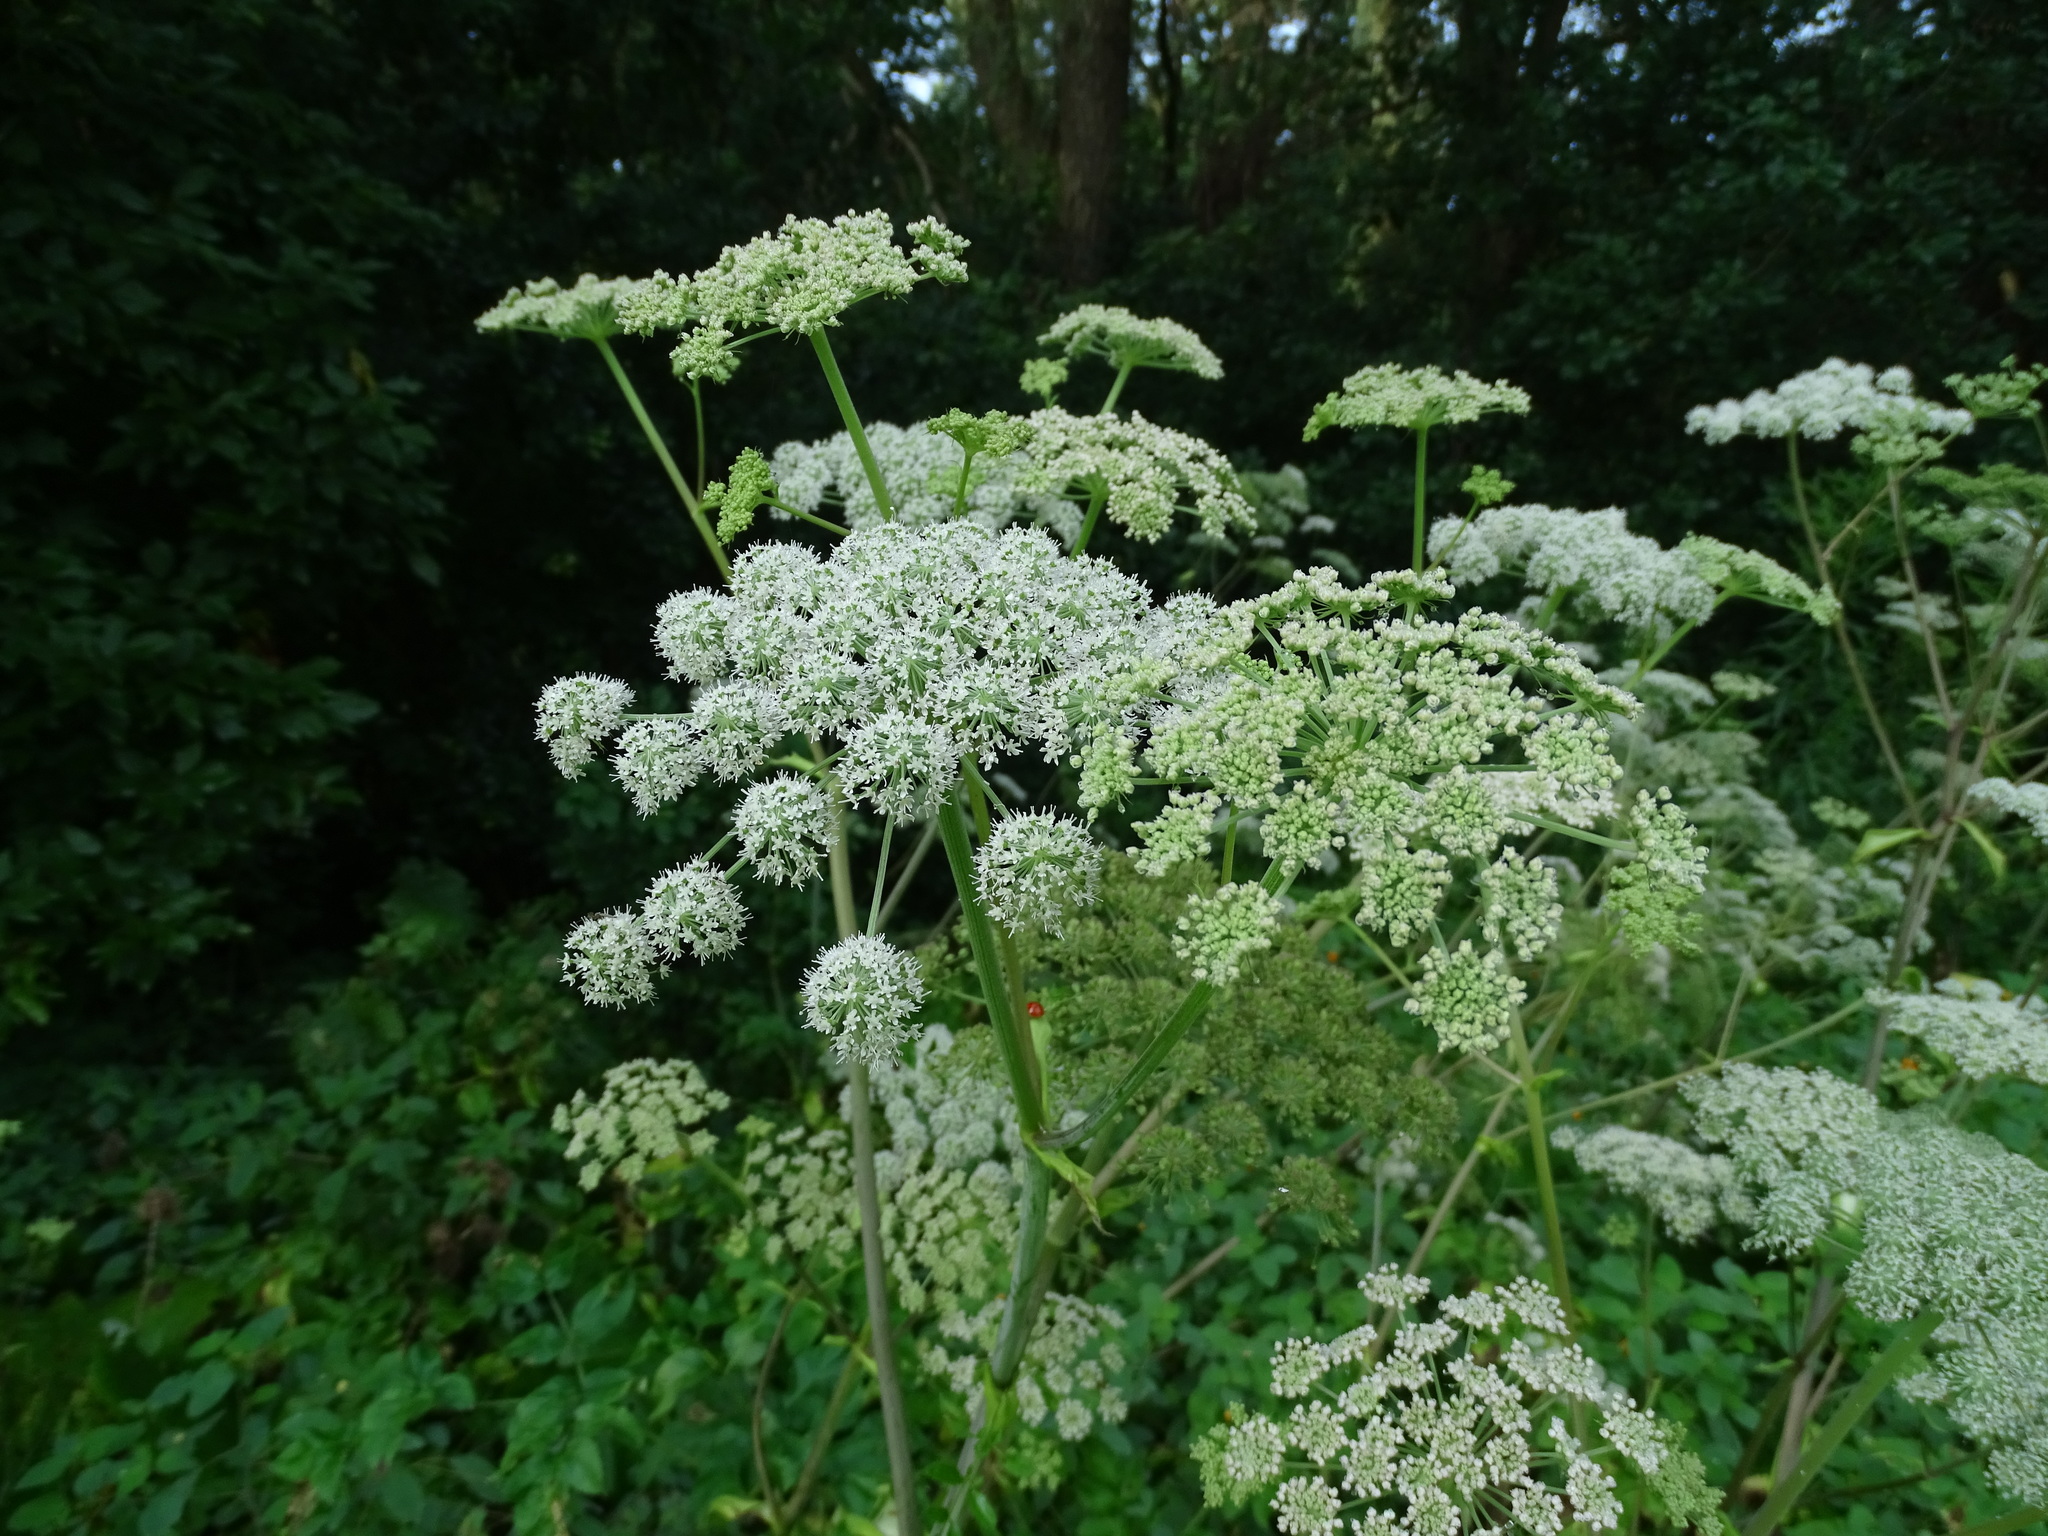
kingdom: Plantae
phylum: Tracheophyta
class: Magnoliopsida
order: Apiales
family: Apiaceae
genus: Angelica
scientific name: Angelica sylvestris
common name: Wild angelica
